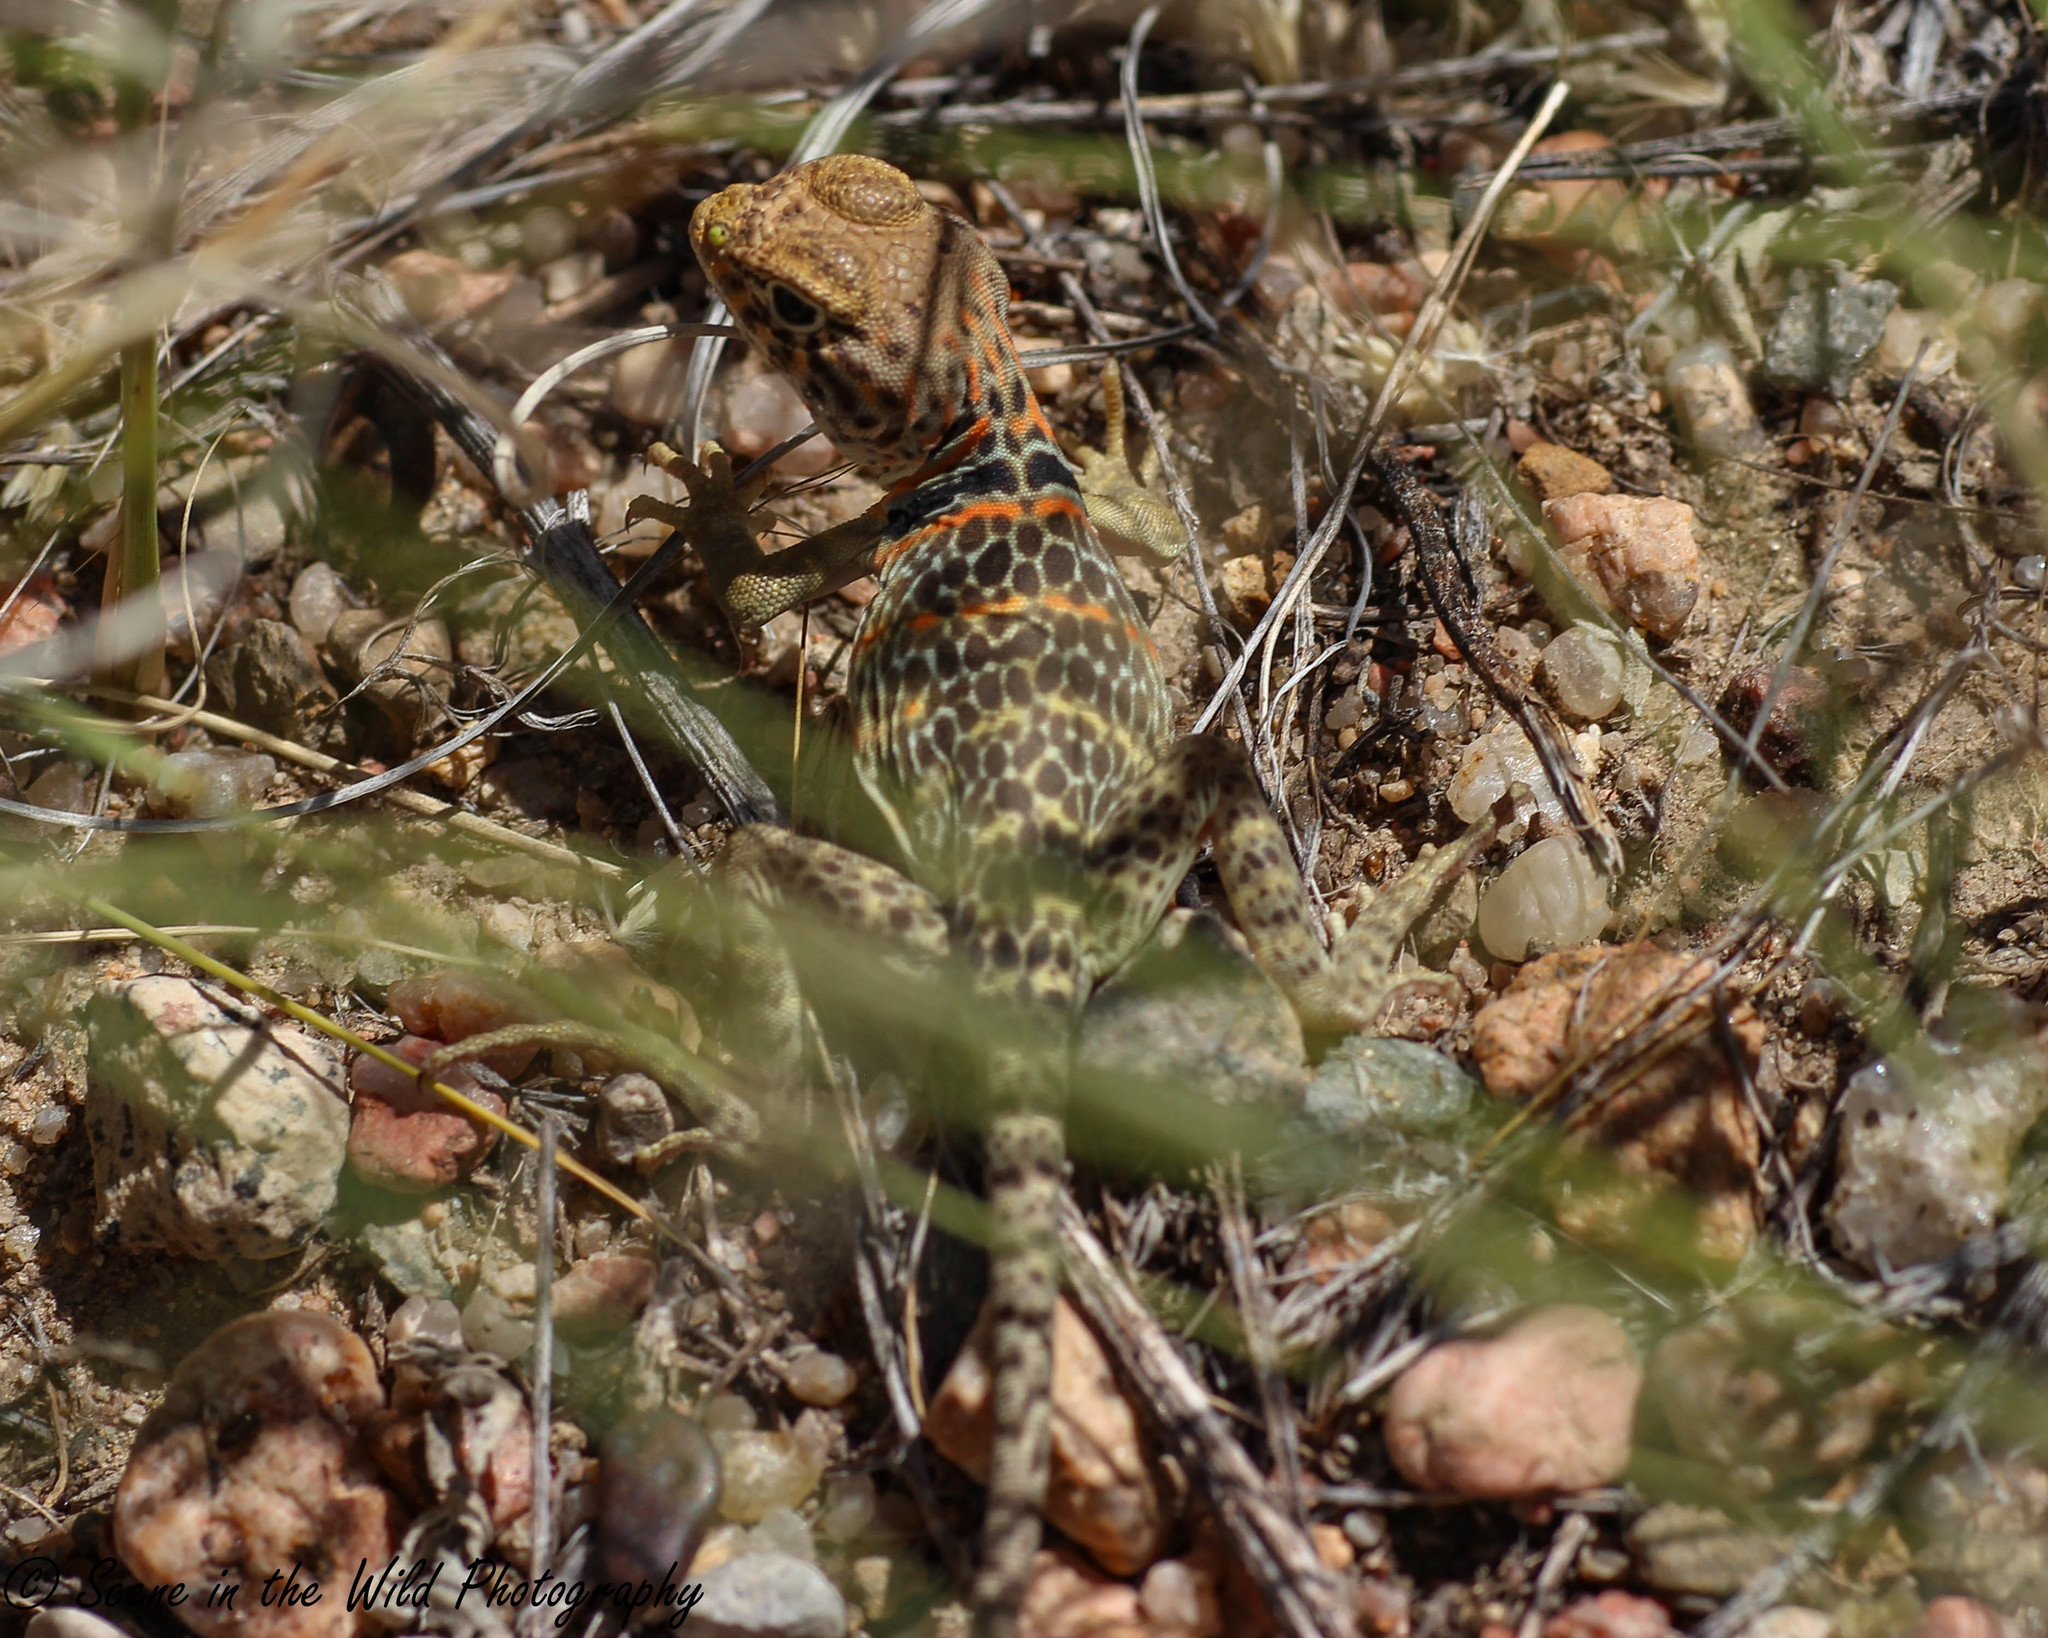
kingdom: Animalia
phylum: Chordata
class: Squamata
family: Crotaphytidae
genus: Crotaphytus
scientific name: Crotaphytus collaris
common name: Collared lizard
